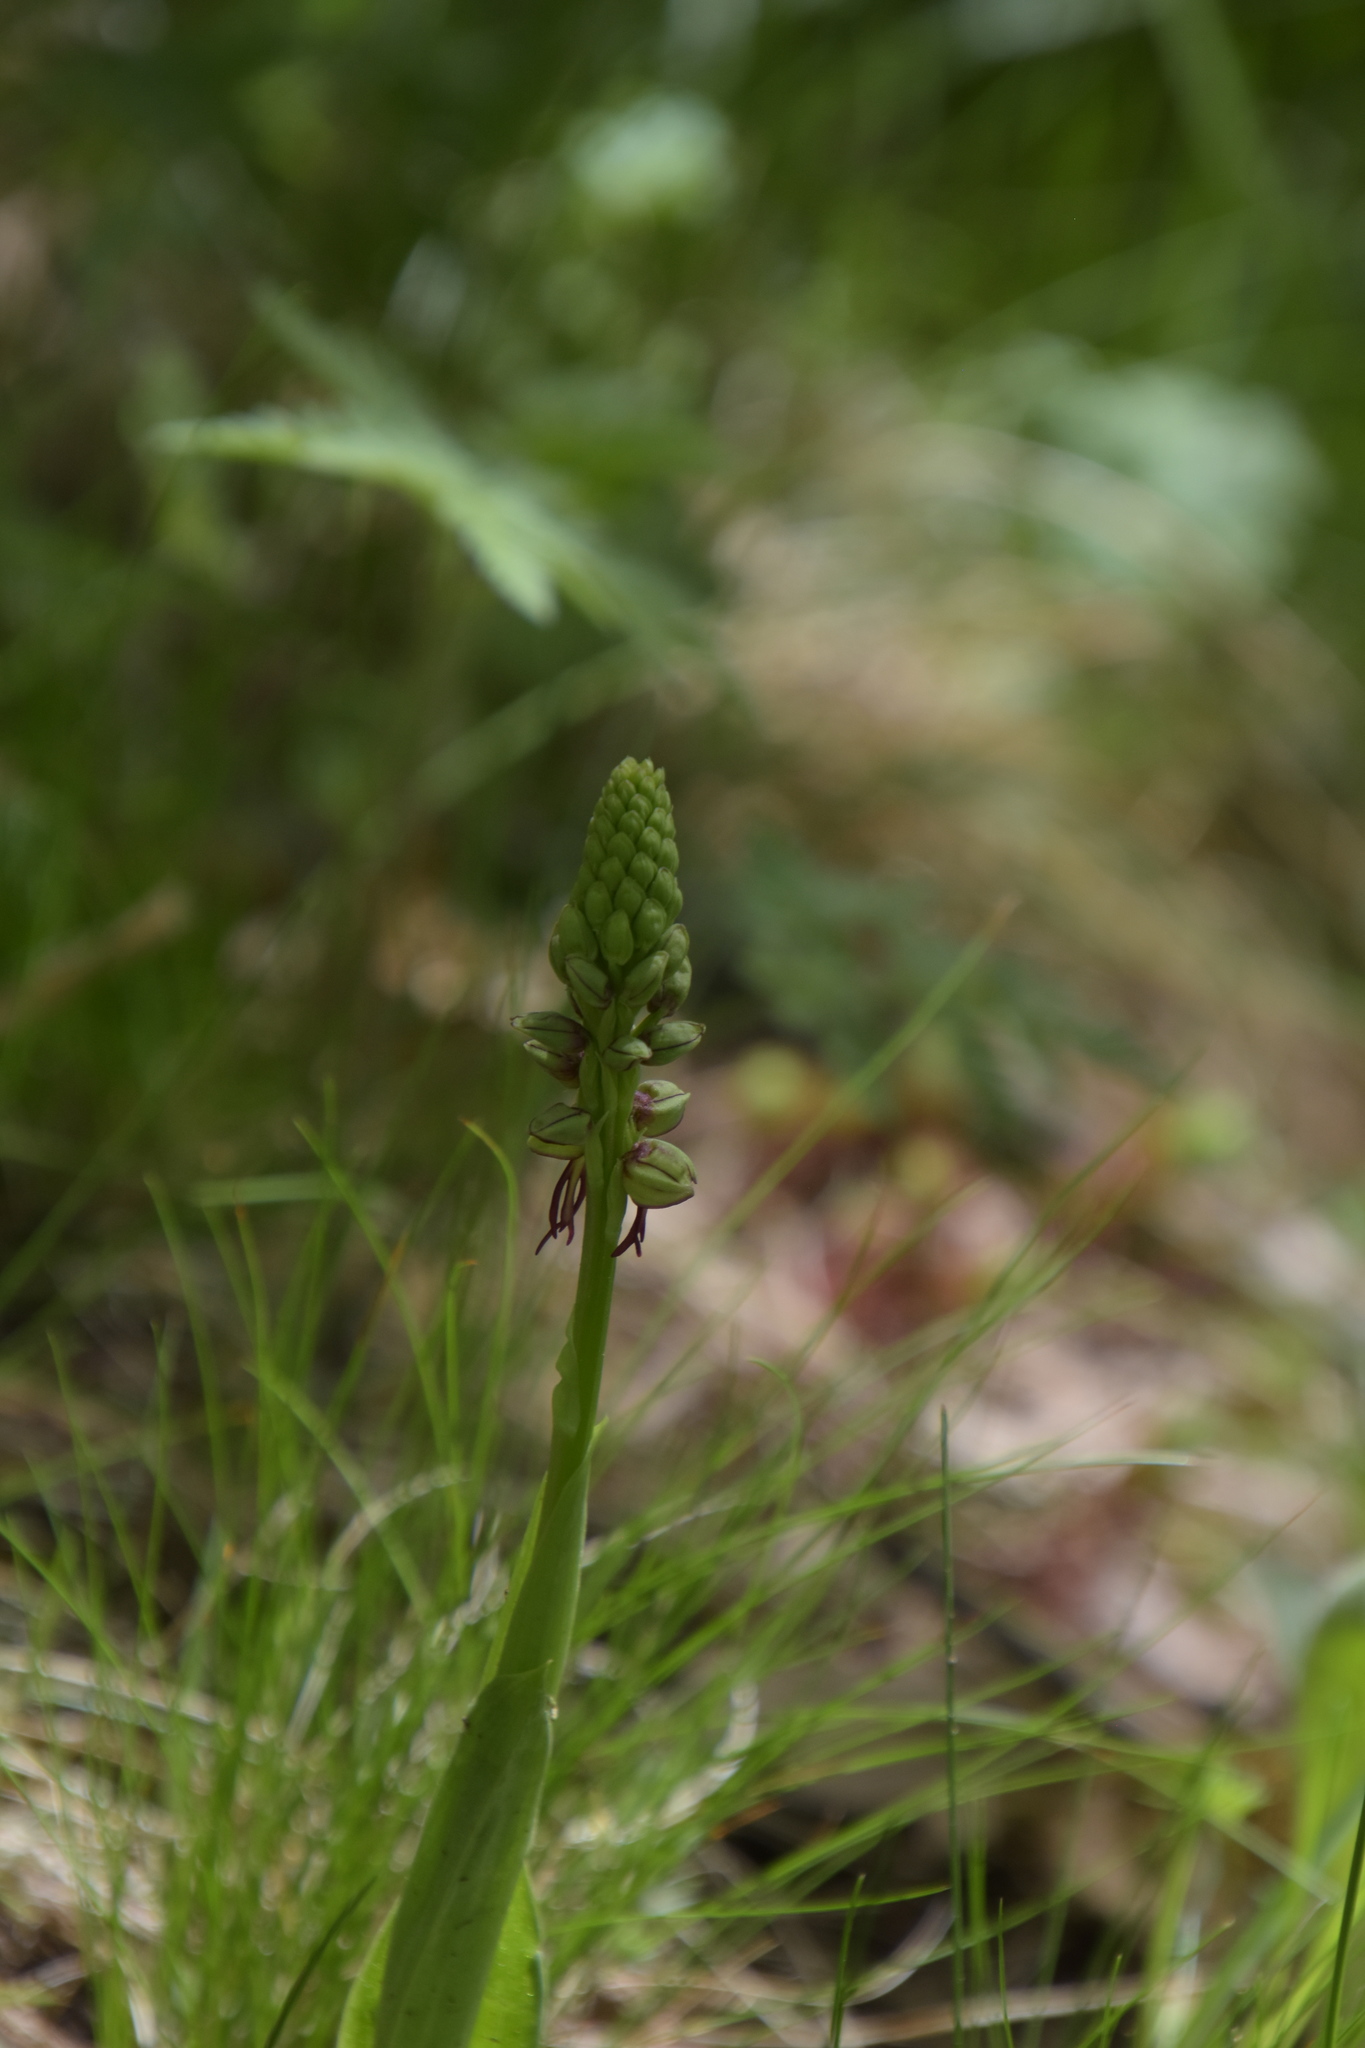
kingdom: Plantae
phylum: Tracheophyta
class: Liliopsida
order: Asparagales
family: Orchidaceae
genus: Orchis
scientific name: Orchis anthropophora
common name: Man orchid
